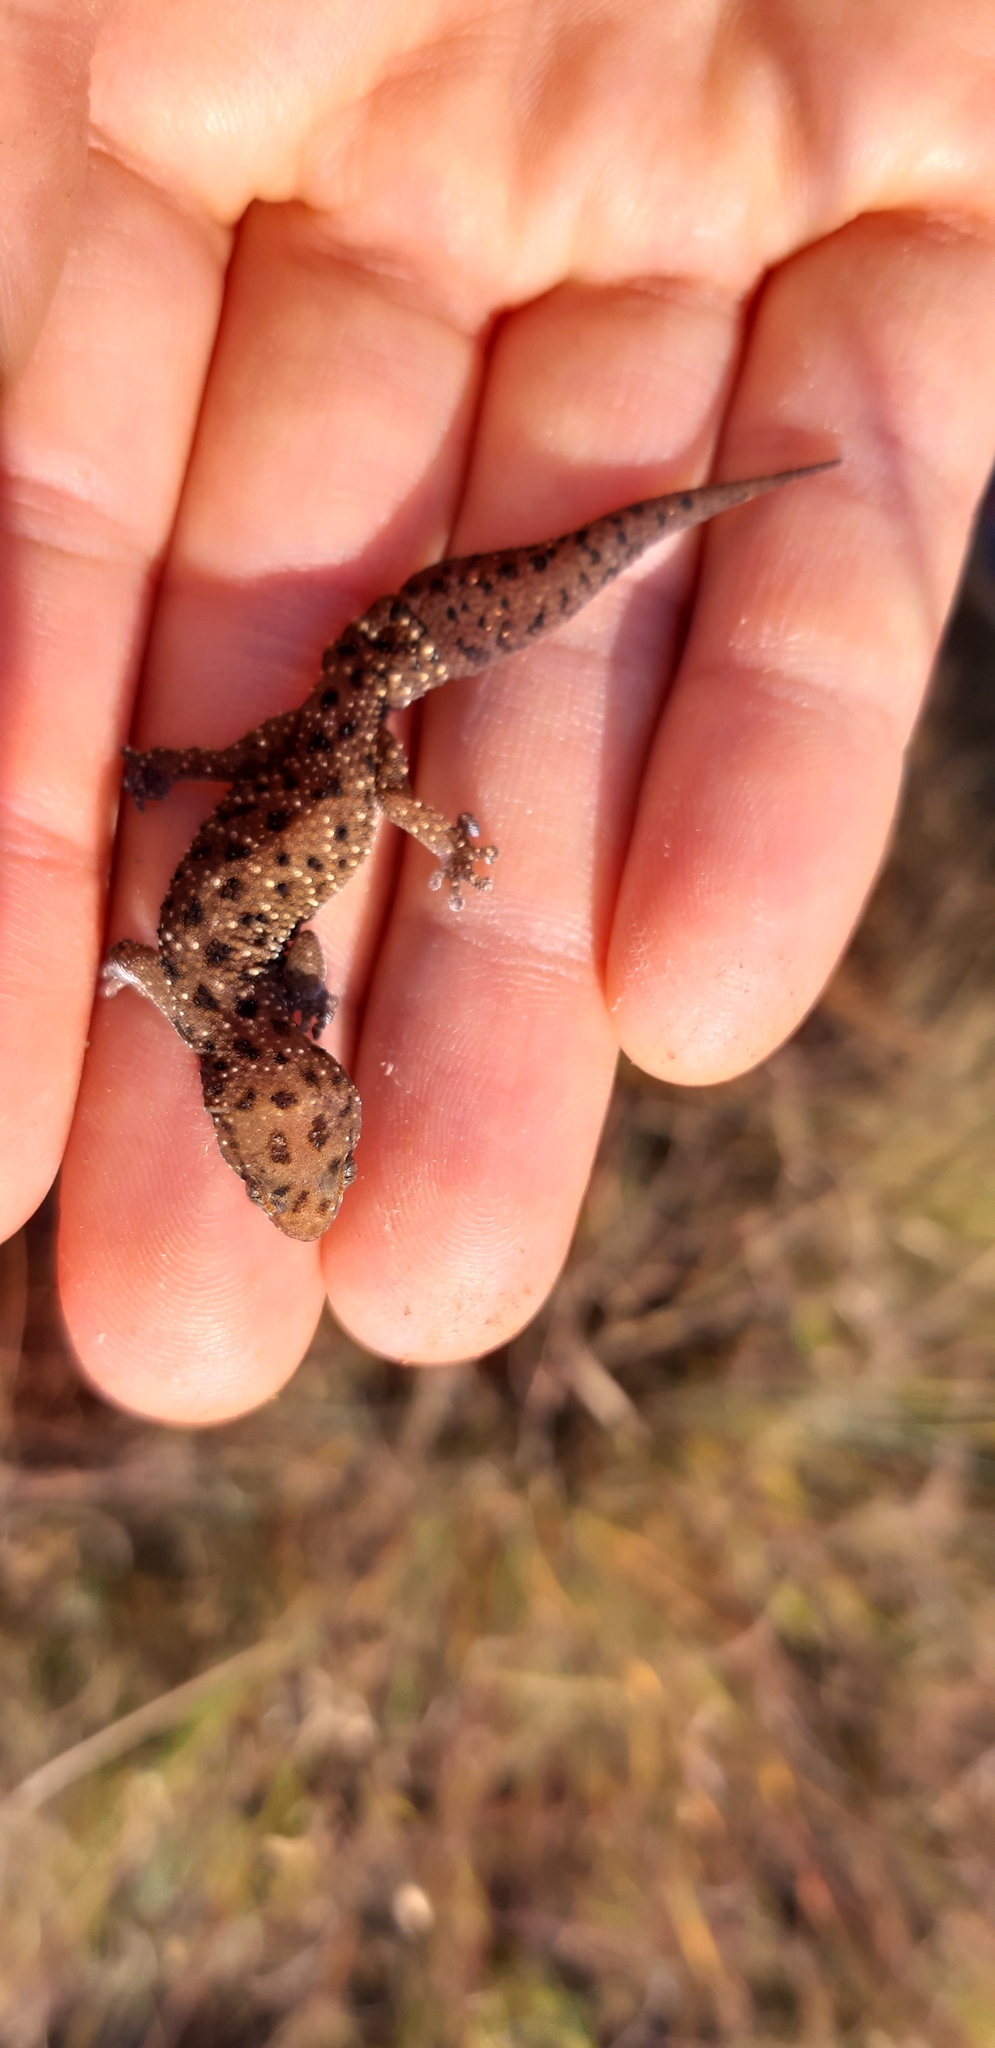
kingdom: Animalia
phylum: Chordata
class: Squamata
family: Gekkonidae
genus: Pachydactylus
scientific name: Pachydactylus affinis
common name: Transvaal gecko
